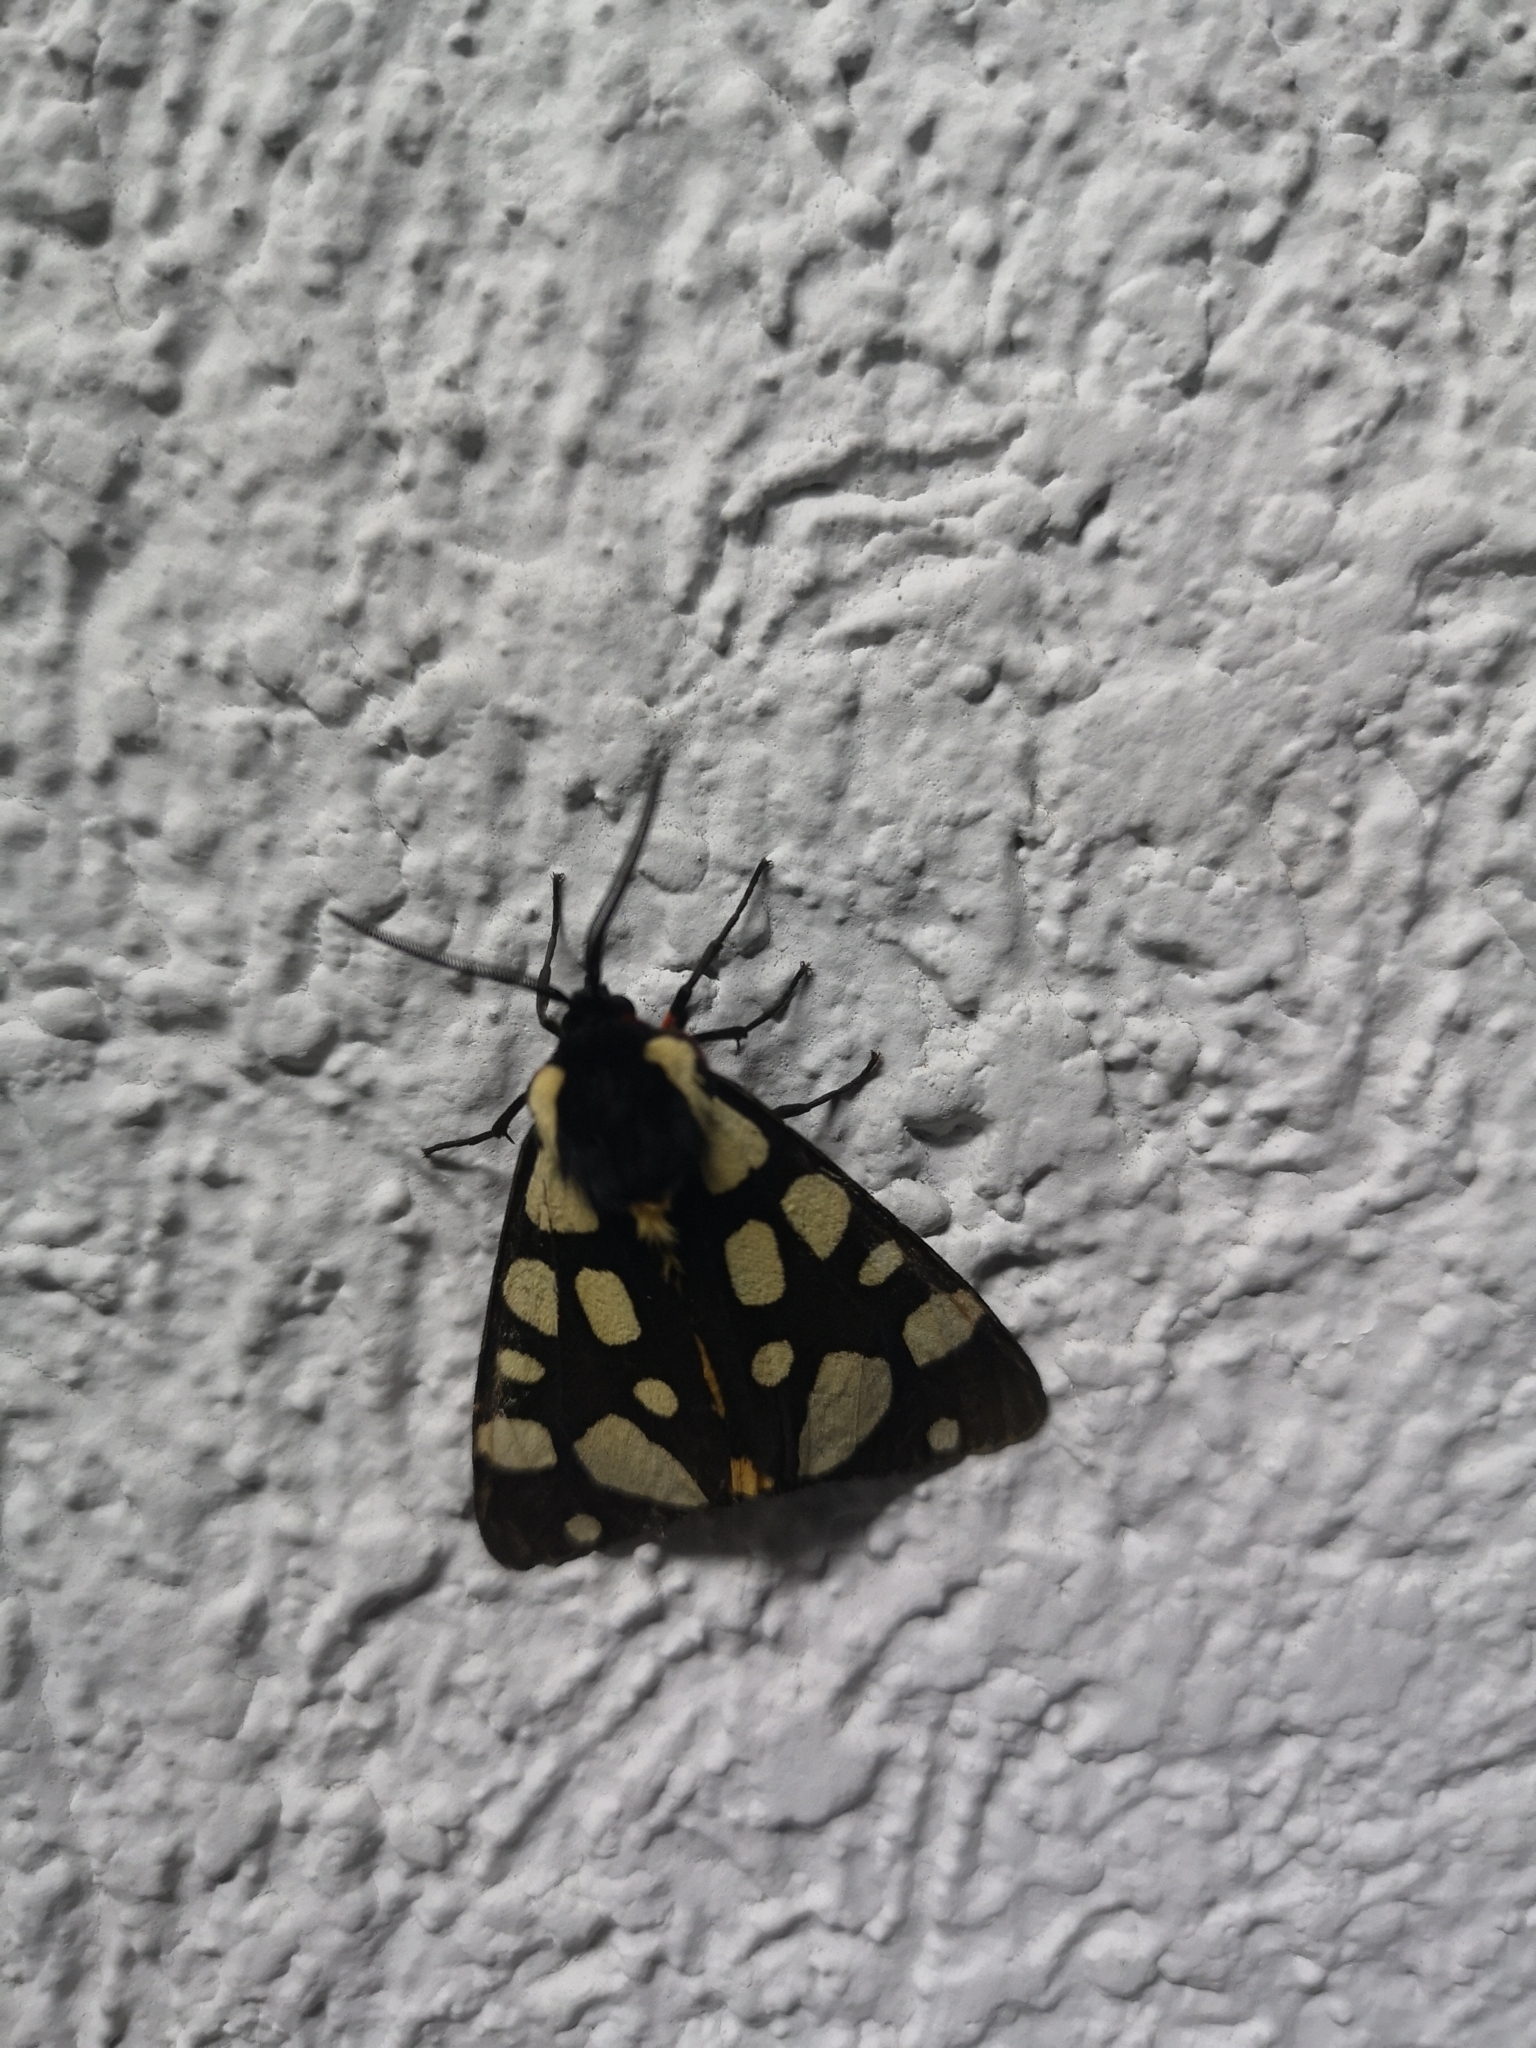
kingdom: Animalia
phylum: Arthropoda
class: Insecta
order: Lepidoptera
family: Erebidae
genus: Epicallia
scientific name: Epicallia villica
